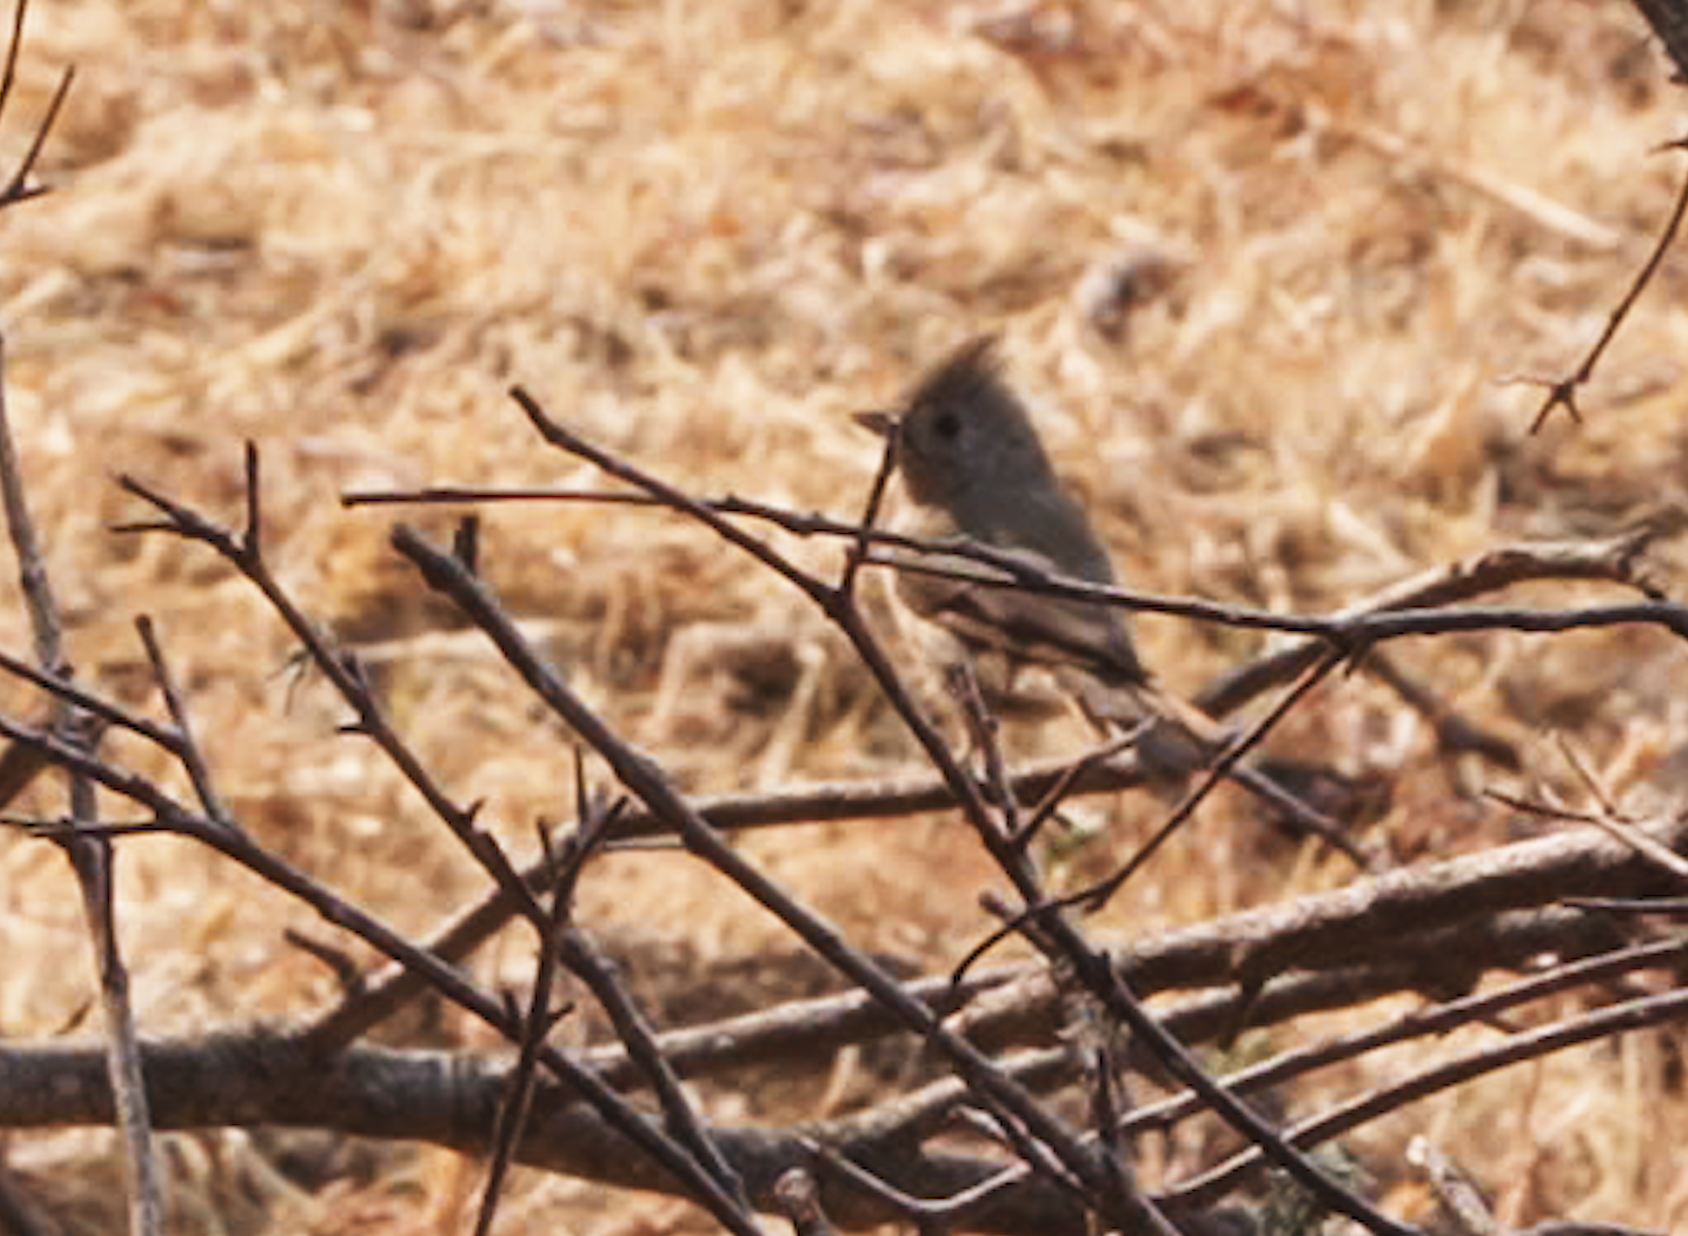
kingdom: Animalia
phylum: Chordata
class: Aves
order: Passeriformes
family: Paridae
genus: Baeolophus
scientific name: Baeolophus inornatus
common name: Oak titmouse
